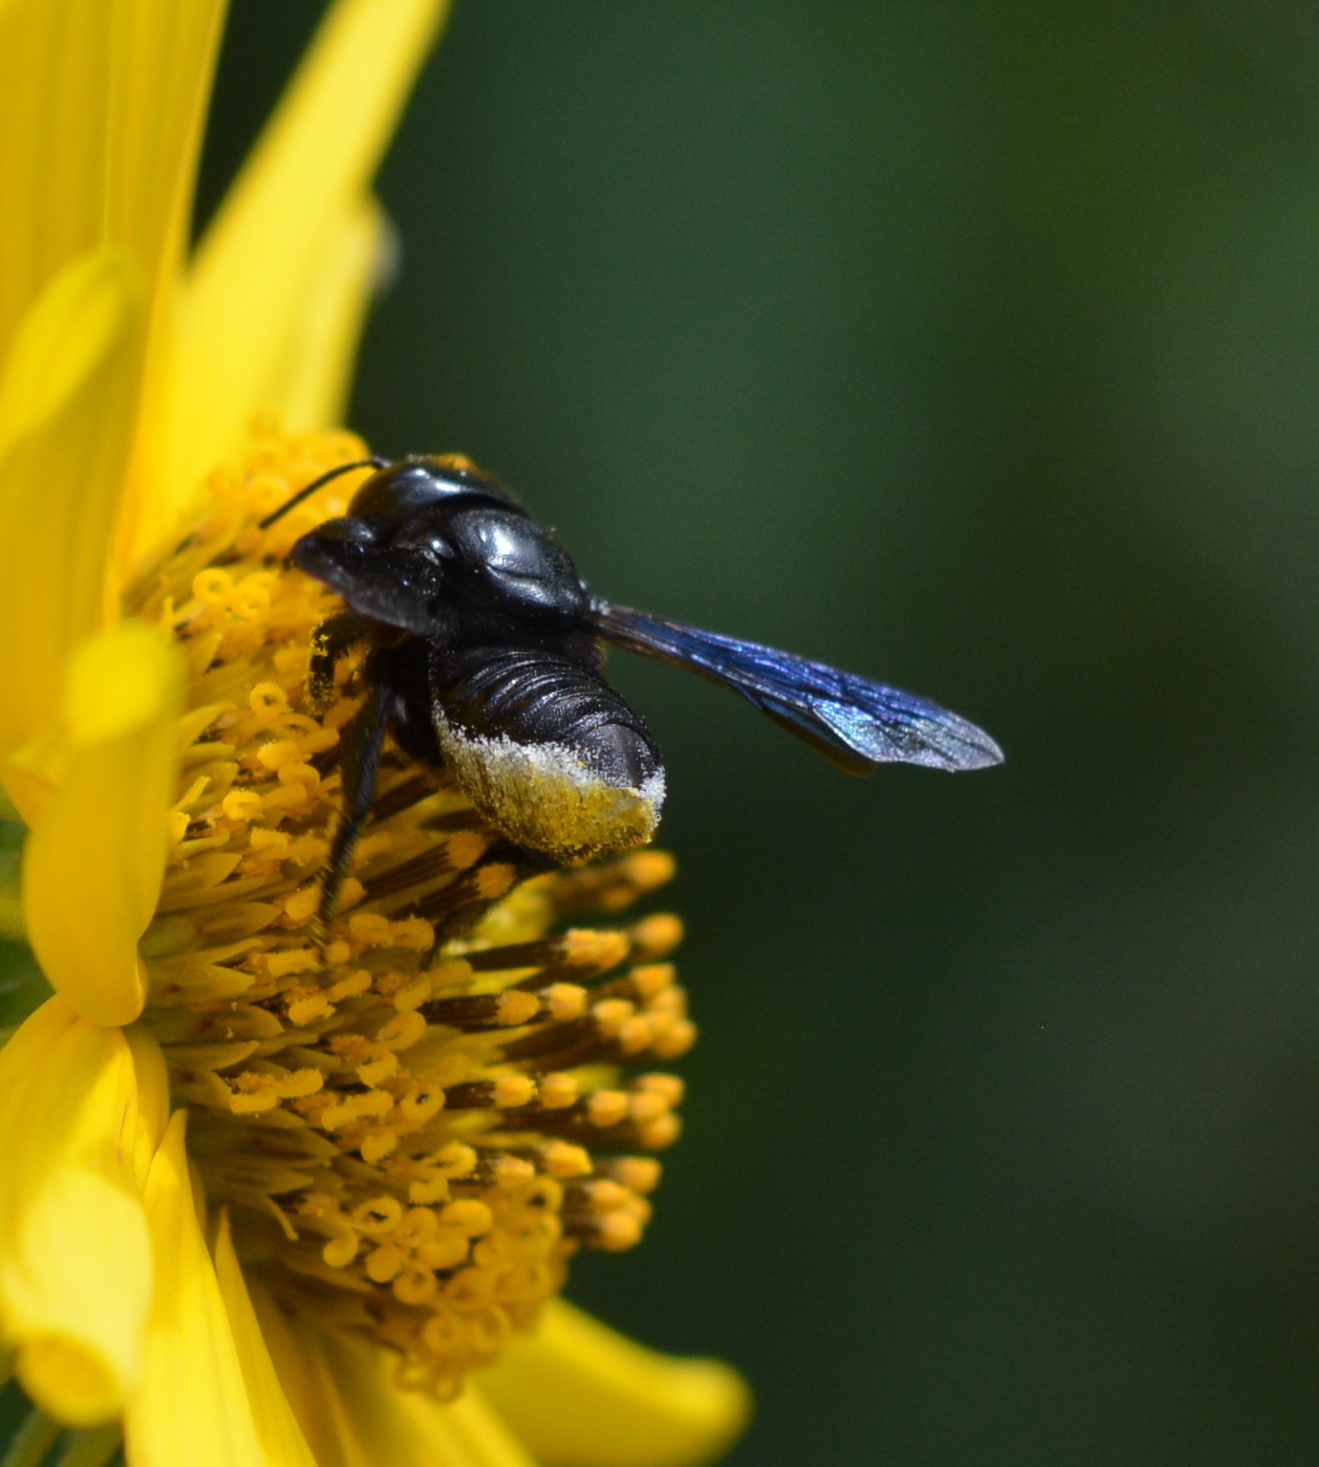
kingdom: Animalia
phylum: Arthropoda
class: Insecta
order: Hymenoptera
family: Megachilidae
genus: Megachile
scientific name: Megachile xylocopoides
